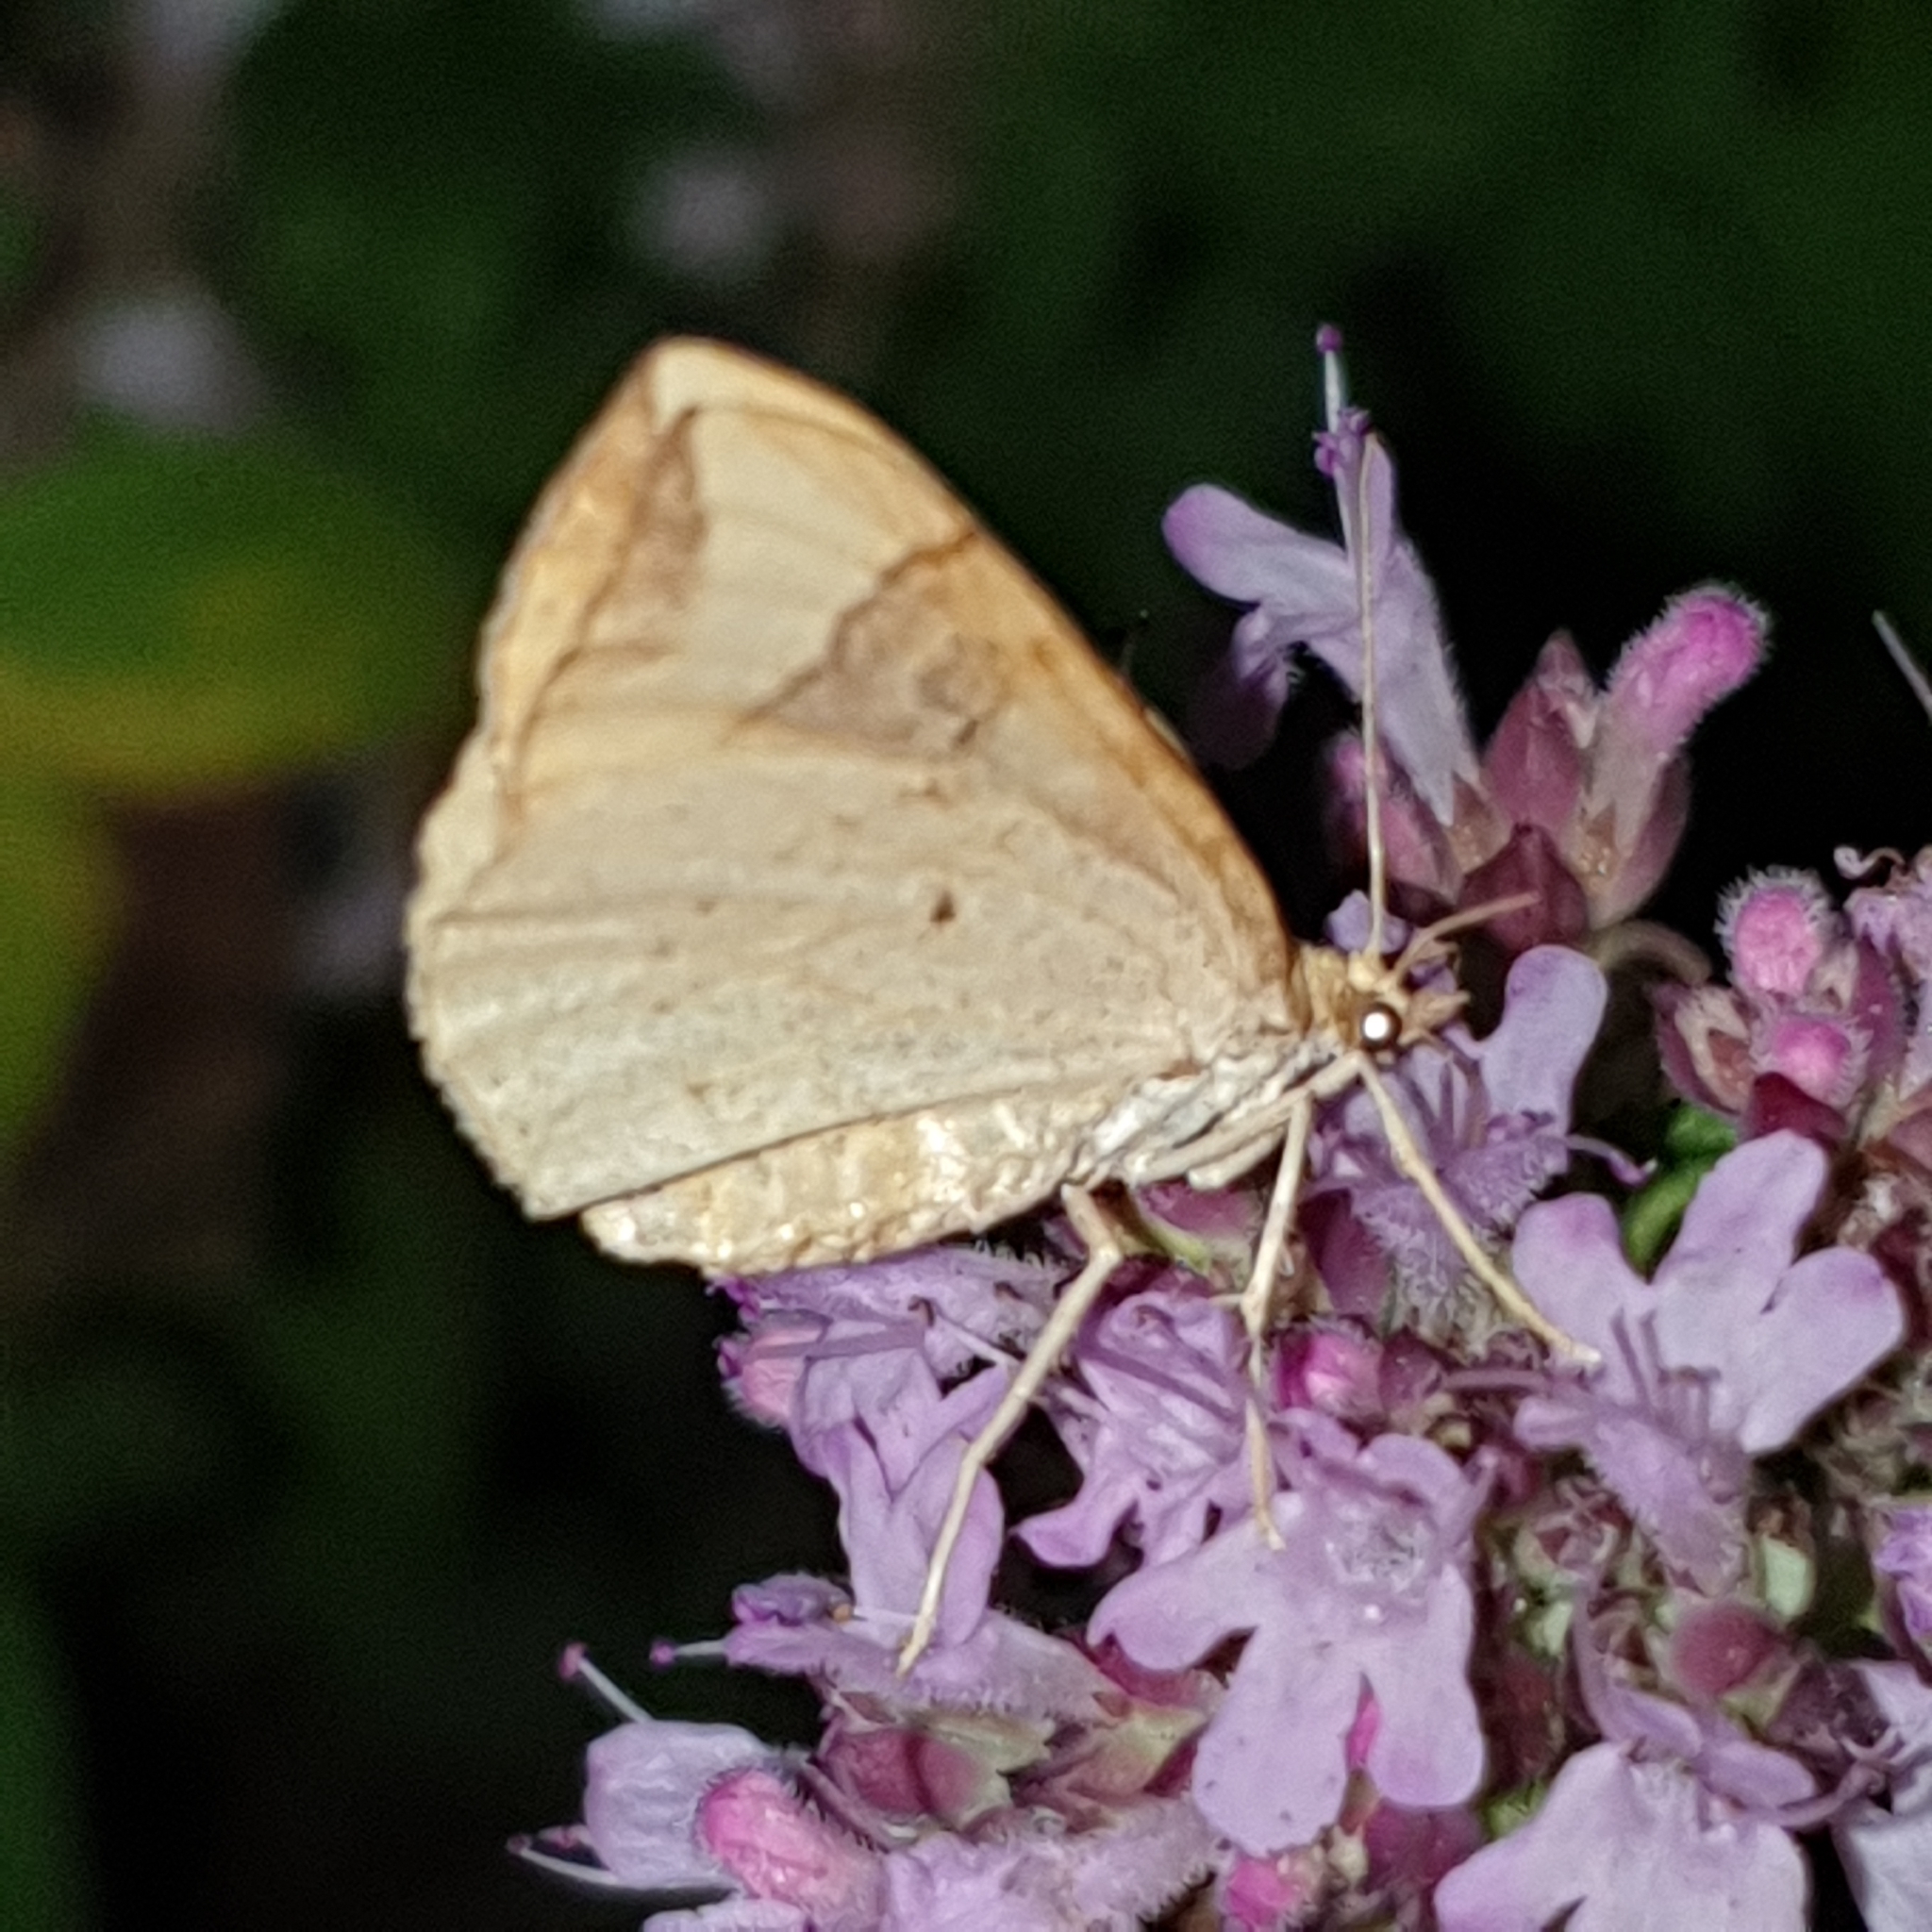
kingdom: Animalia
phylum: Arthropoda
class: Insecta
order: Lepidoptera
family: Geometridae
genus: Eulithis
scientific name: Eulithis populata
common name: Northern spinach
